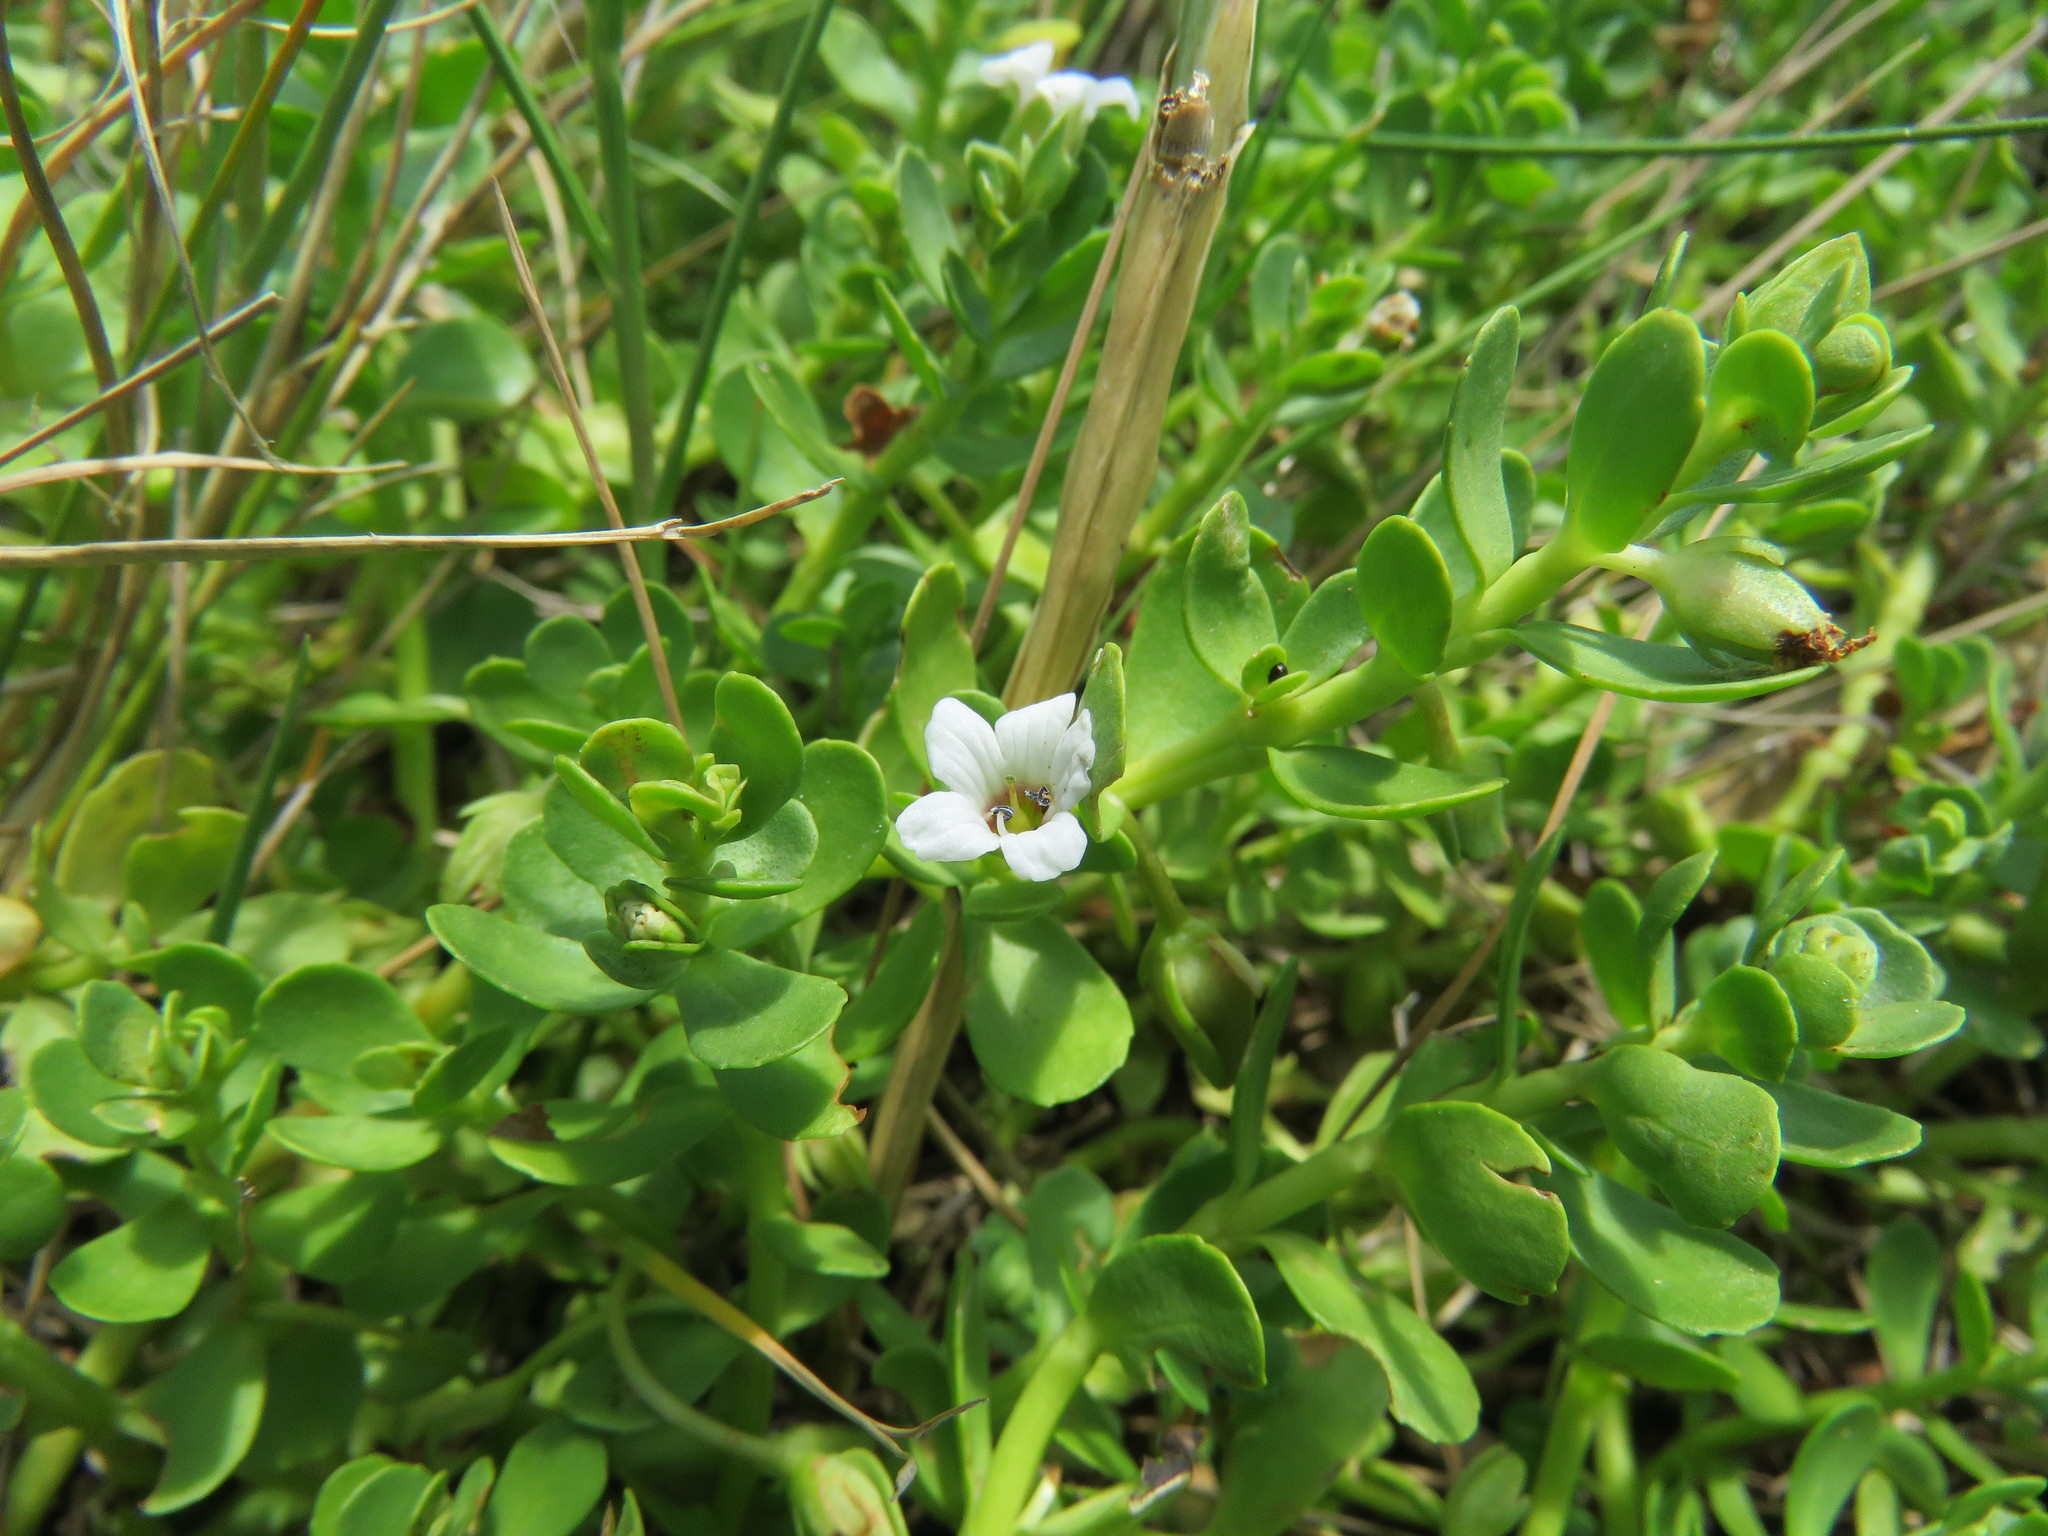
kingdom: Plantae
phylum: Tracheophyta
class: Magnoliopsida
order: Lamiales
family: Plantaginaceae
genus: Bacopa
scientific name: Bacopa monnieri
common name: Indian-pennywort
